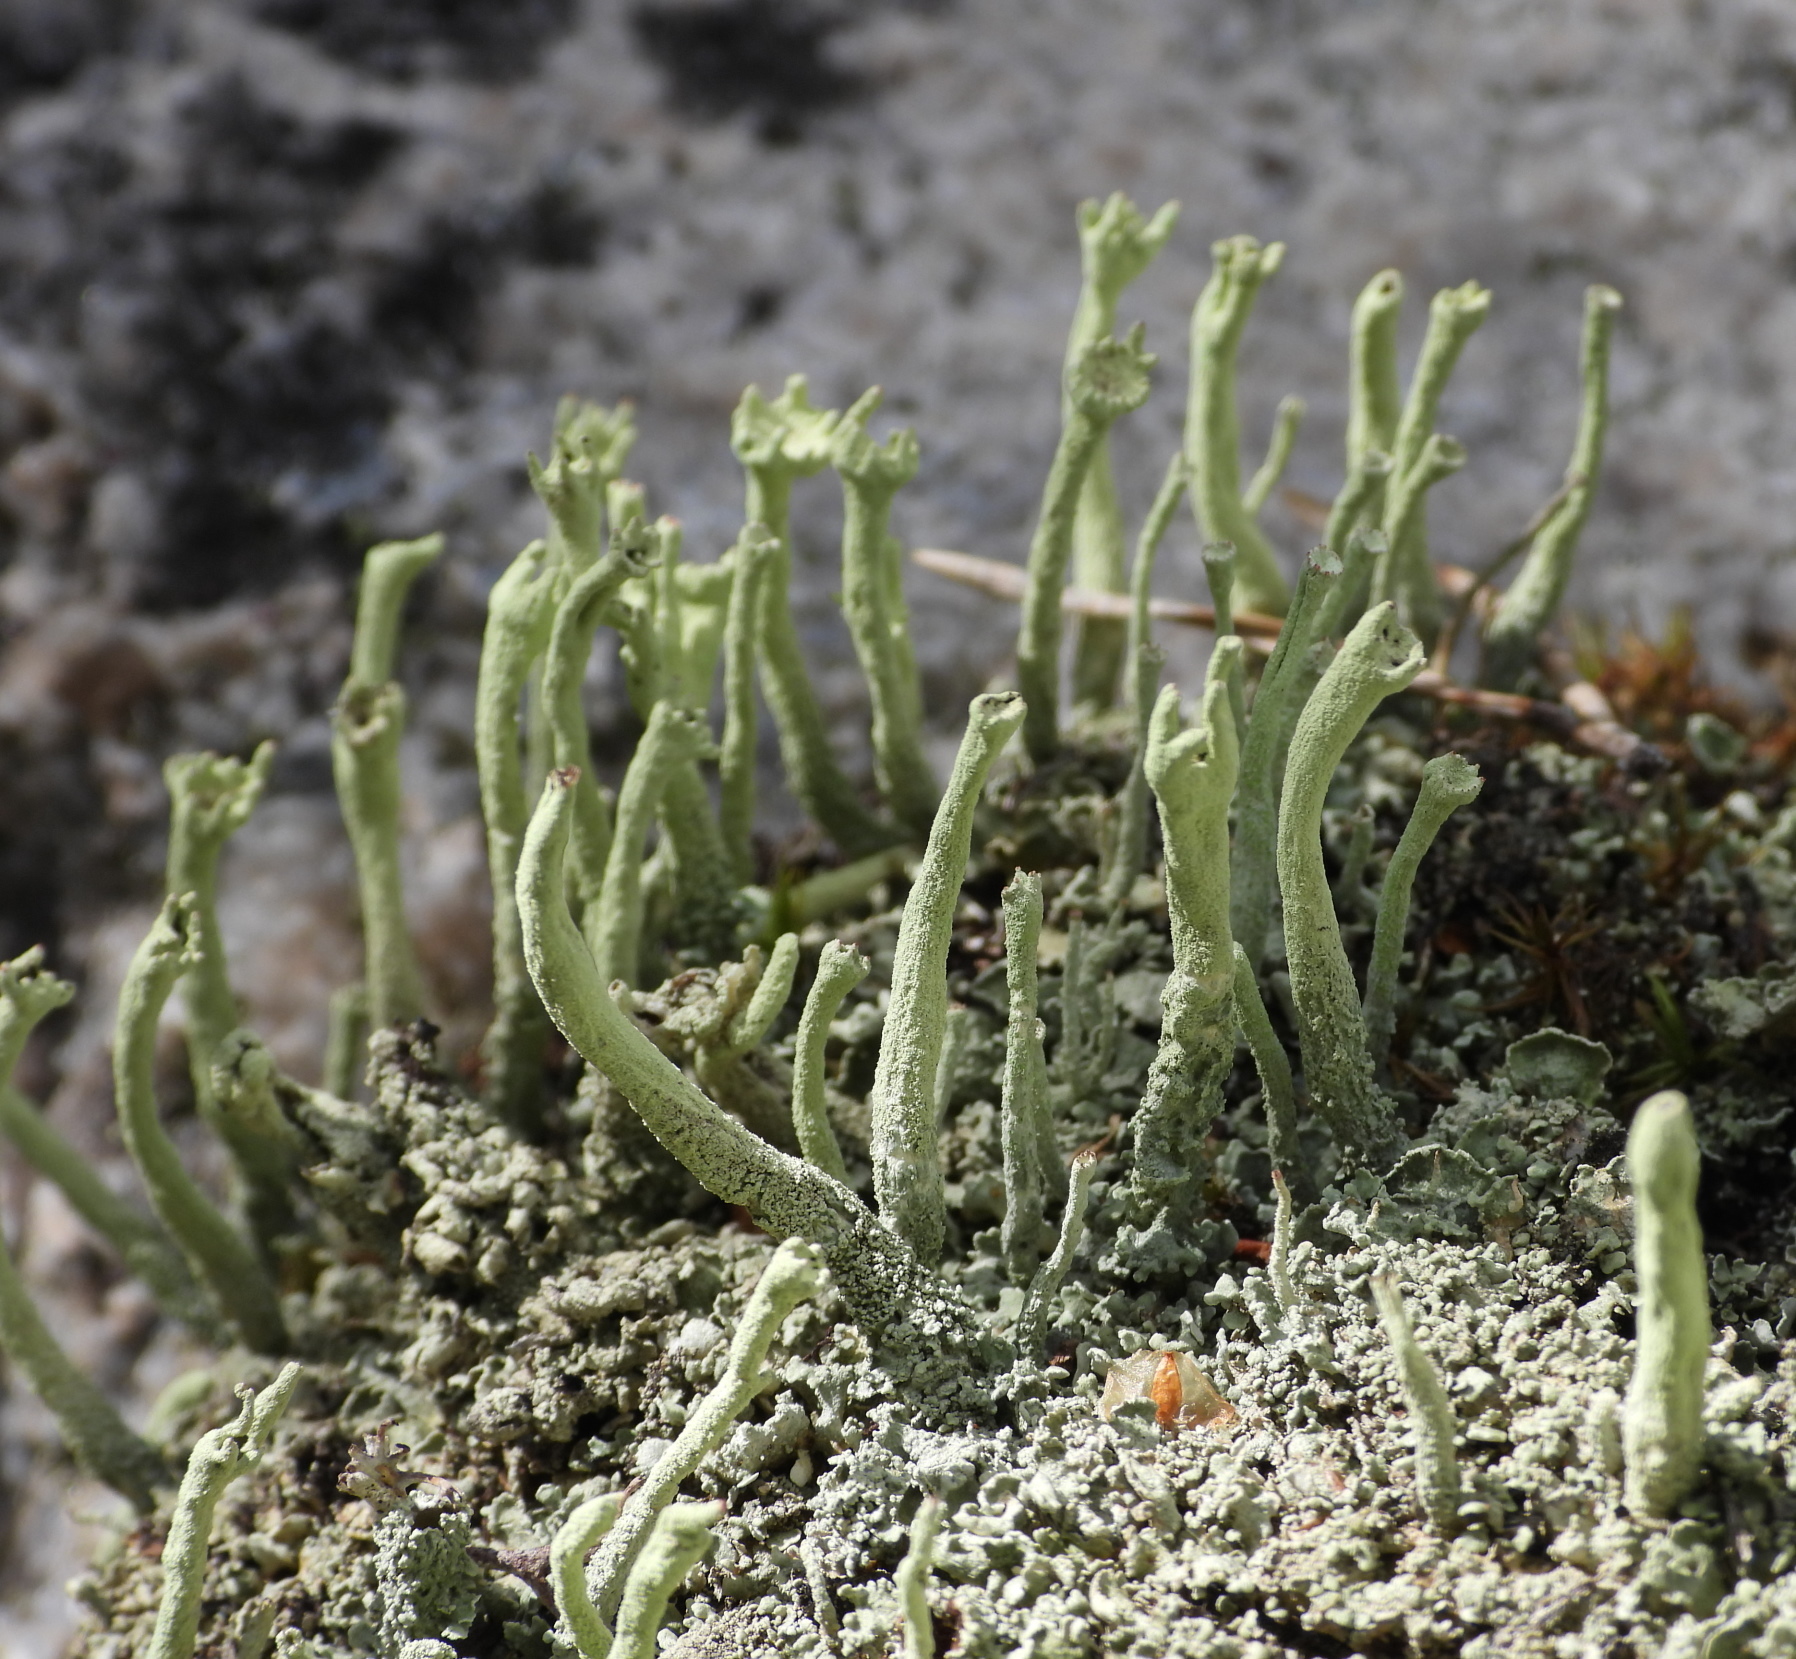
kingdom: Fungi
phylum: Ascomycota
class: Lecanoromycetes
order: Lecanorales
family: Cladoniaceae
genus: Cladonia
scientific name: Cladonia sulphurina
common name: Greater sulphur-cup lichen
